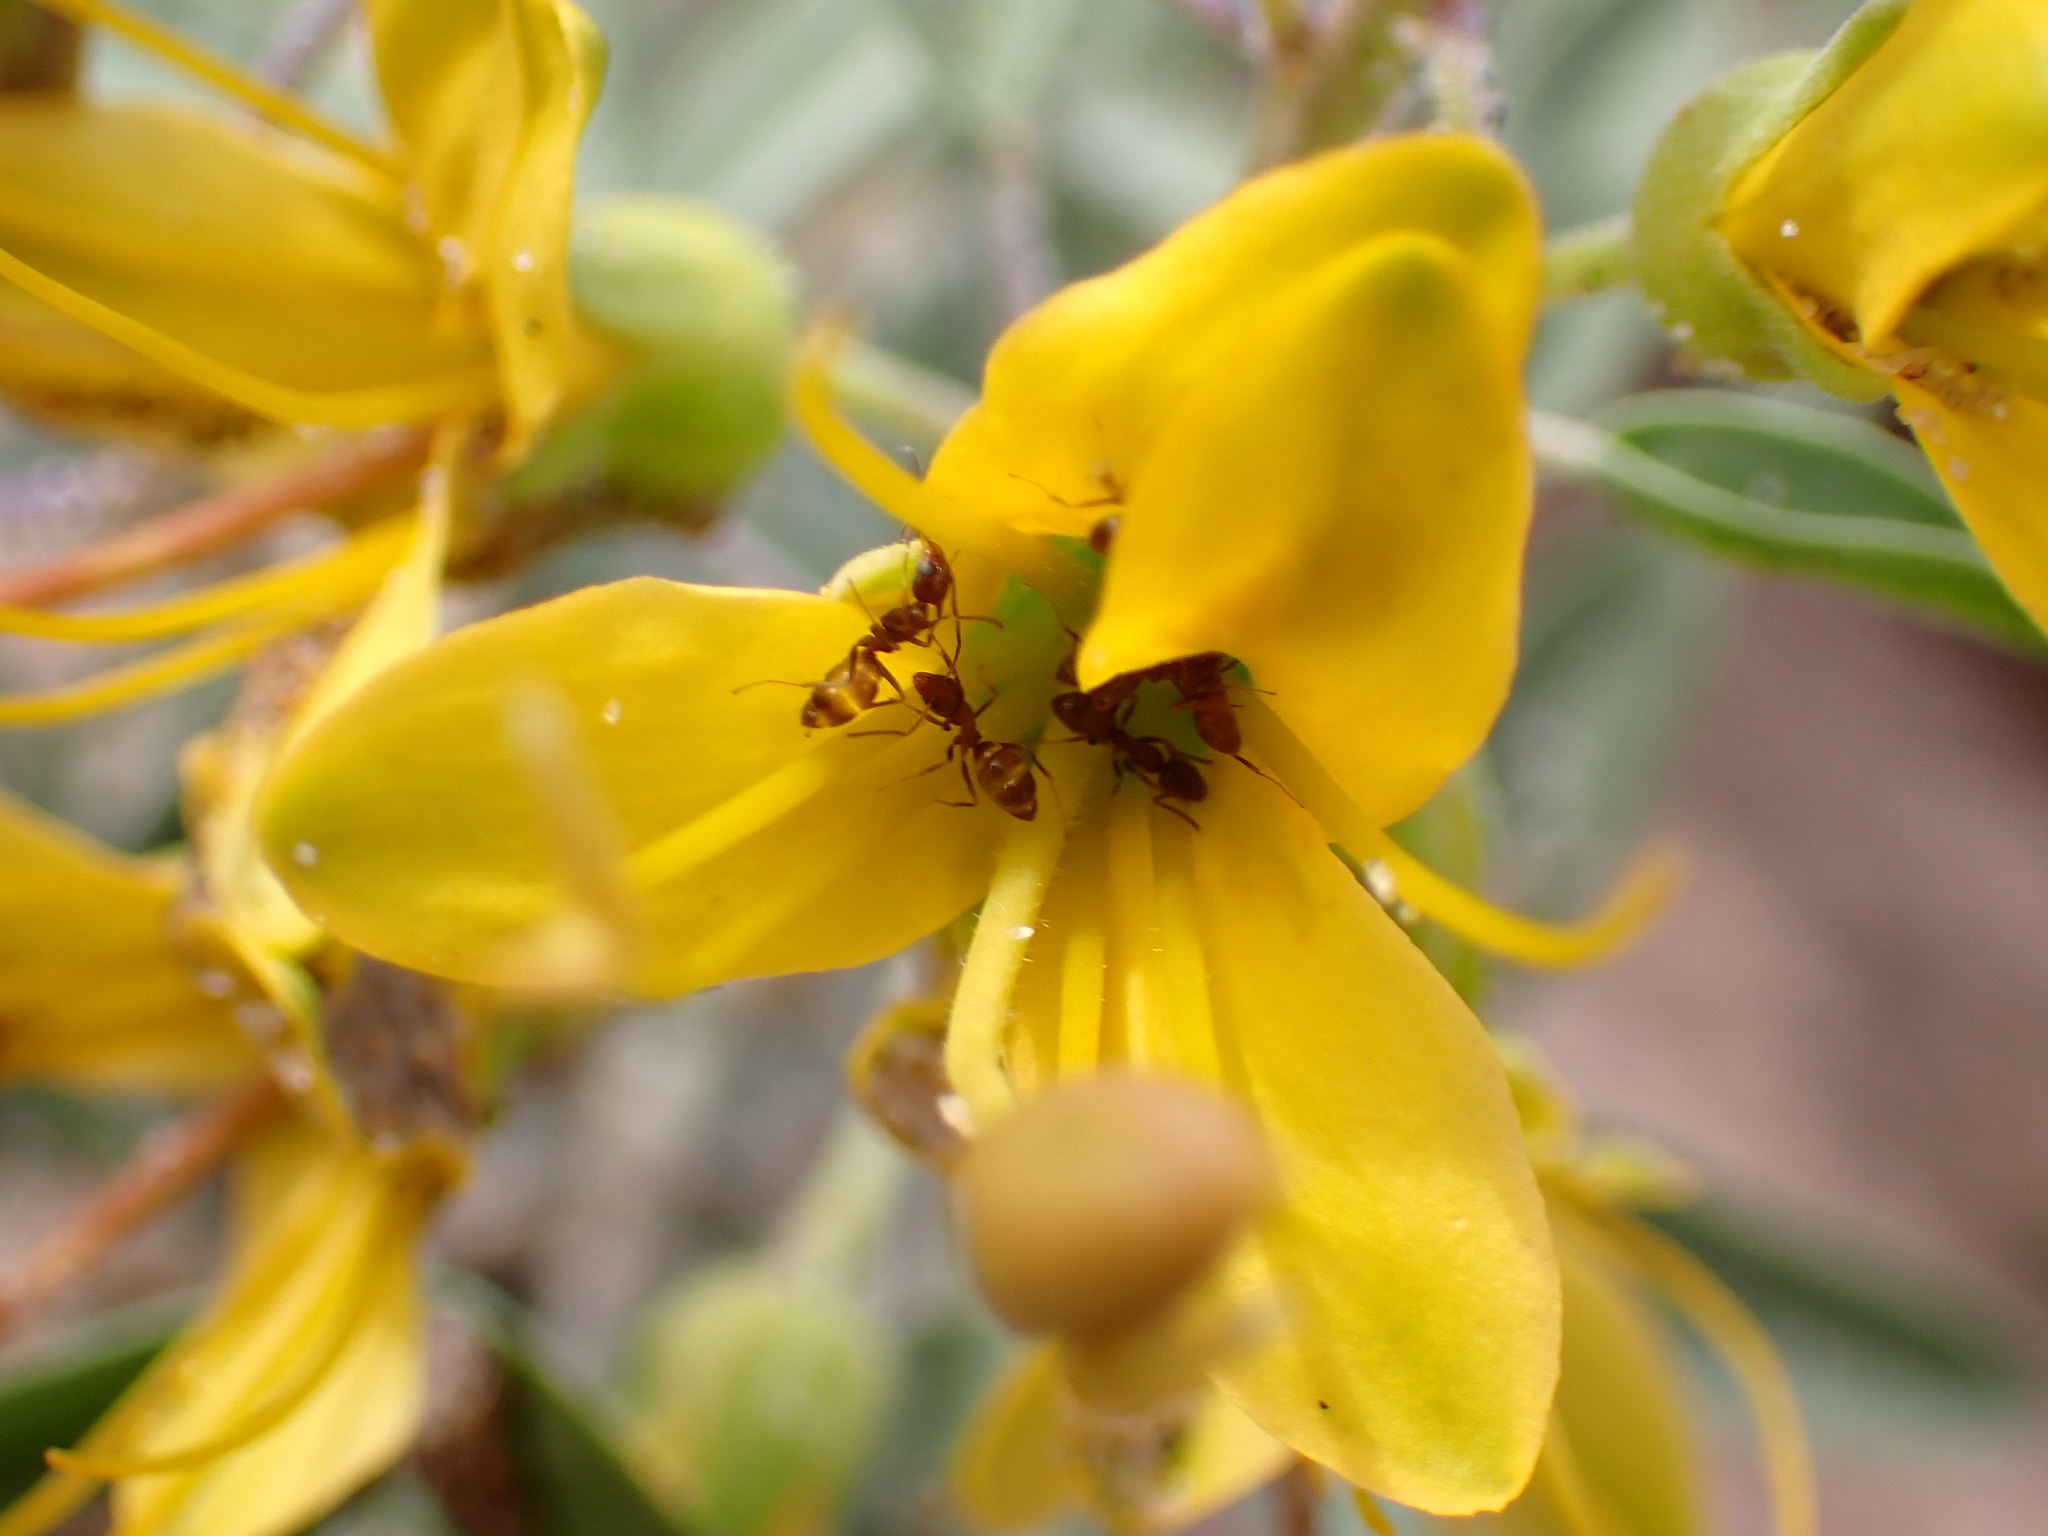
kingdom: Animalia
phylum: Arthropoda
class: Insecta
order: Hymenoptera
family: Formicidae
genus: Linepithema
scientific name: Linepithema humile
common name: Argentine ant
